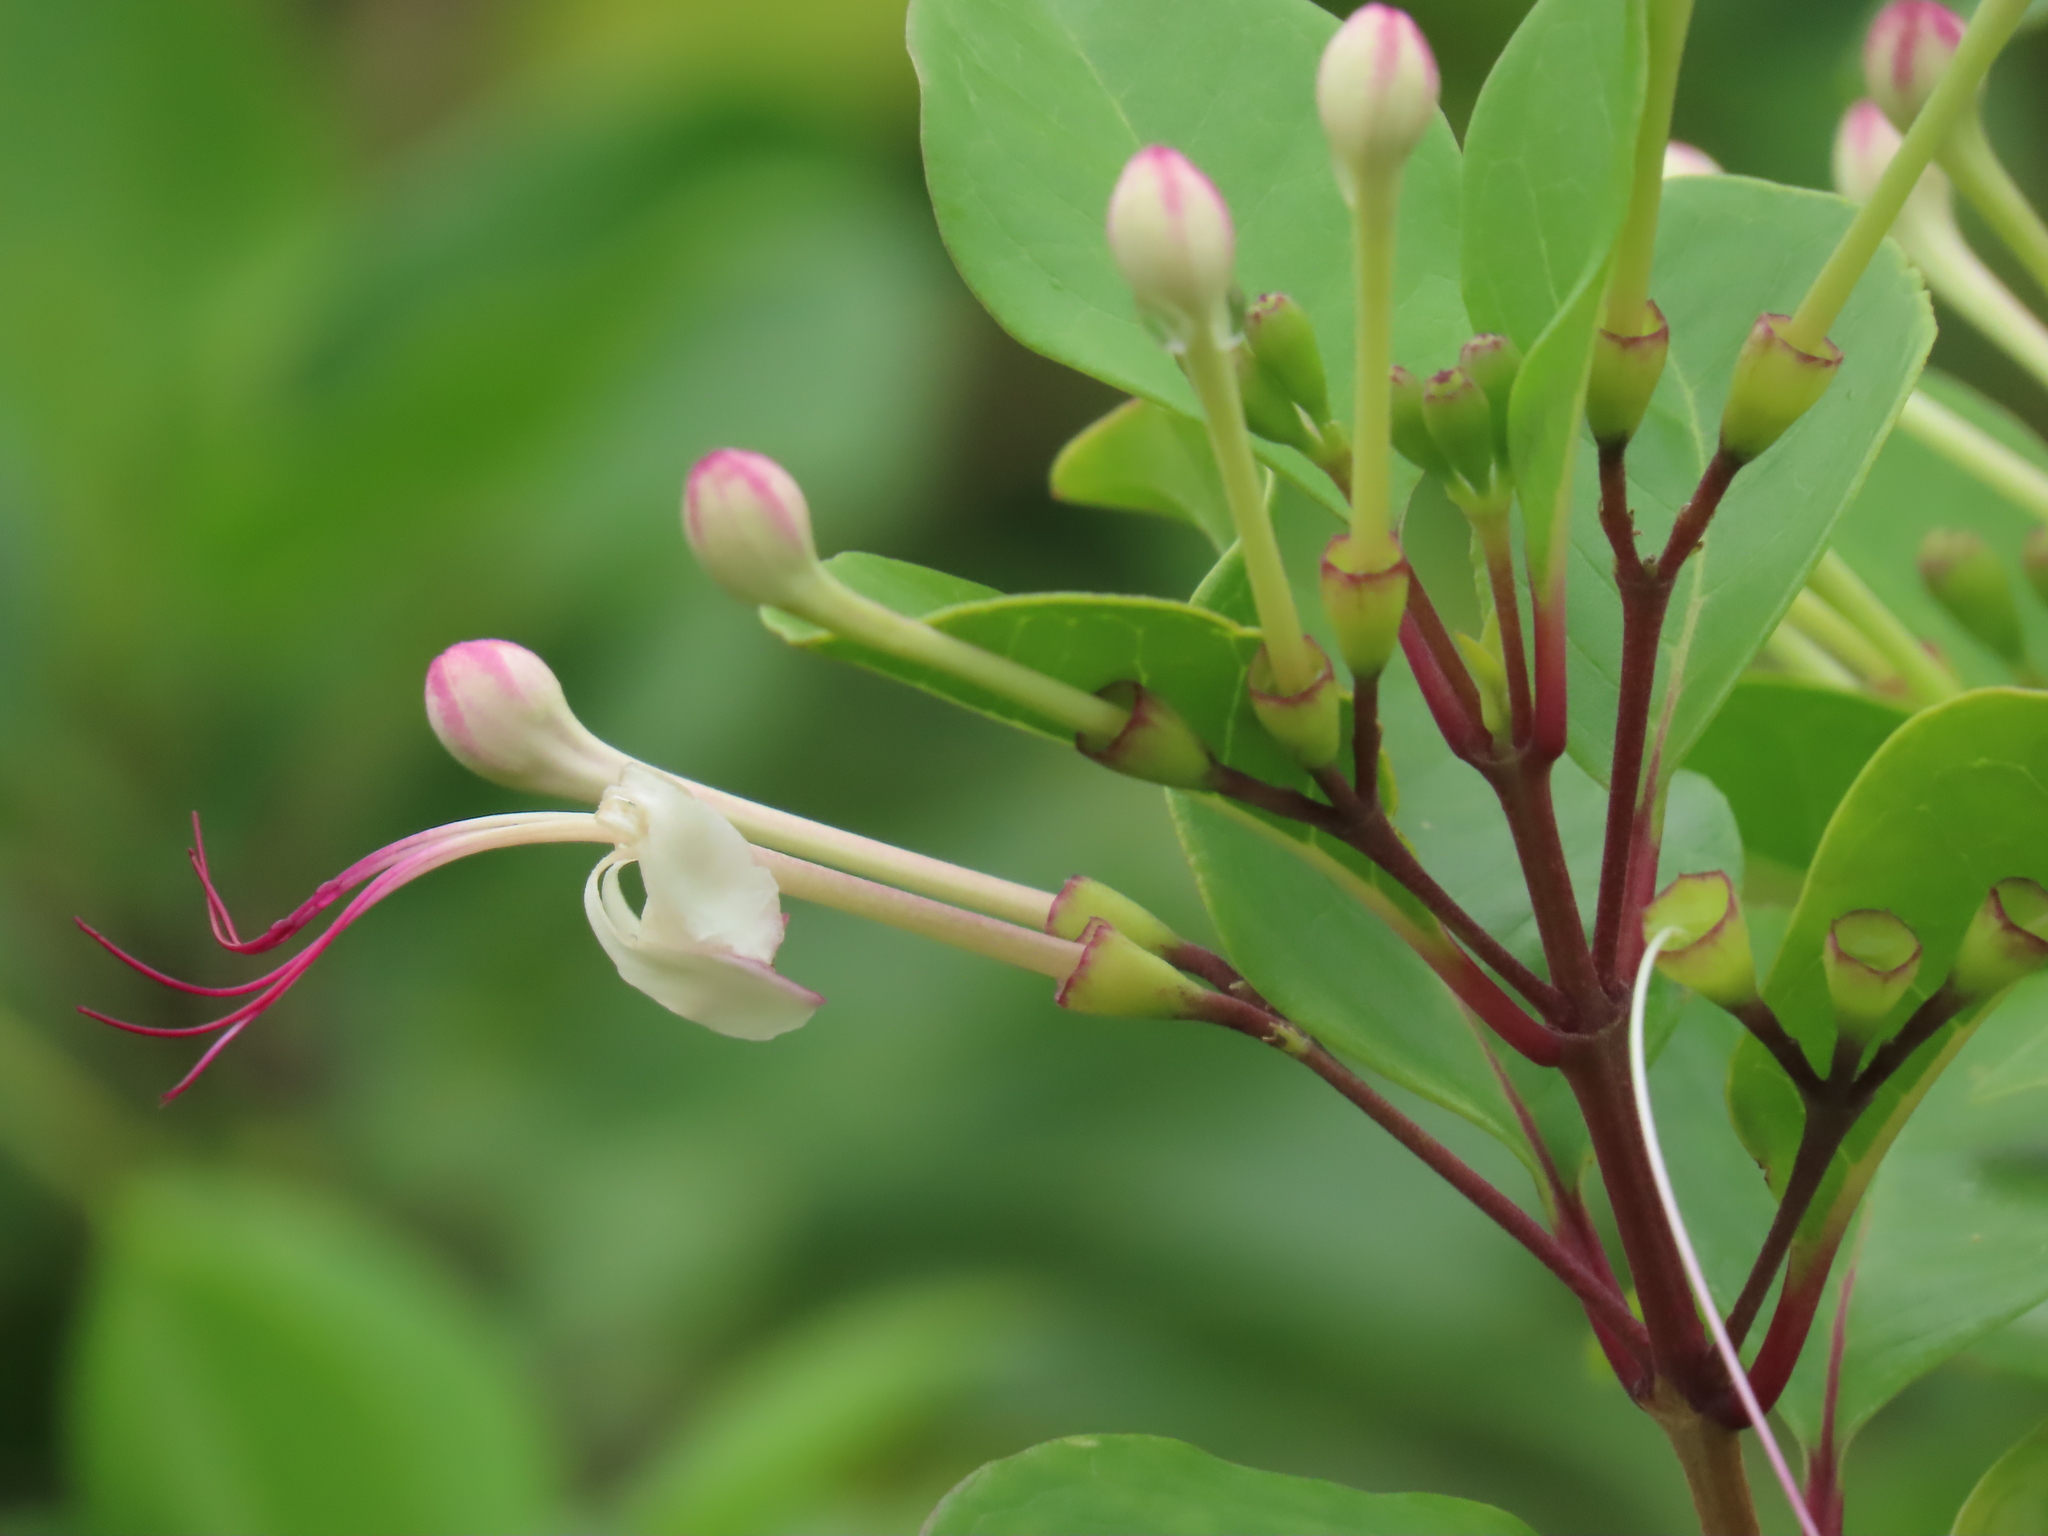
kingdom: Plantae
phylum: Tracheophyta
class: Magnoliopsida
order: Lamiales
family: Lamiaceae
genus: Volkameria
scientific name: Volkameria inermis
